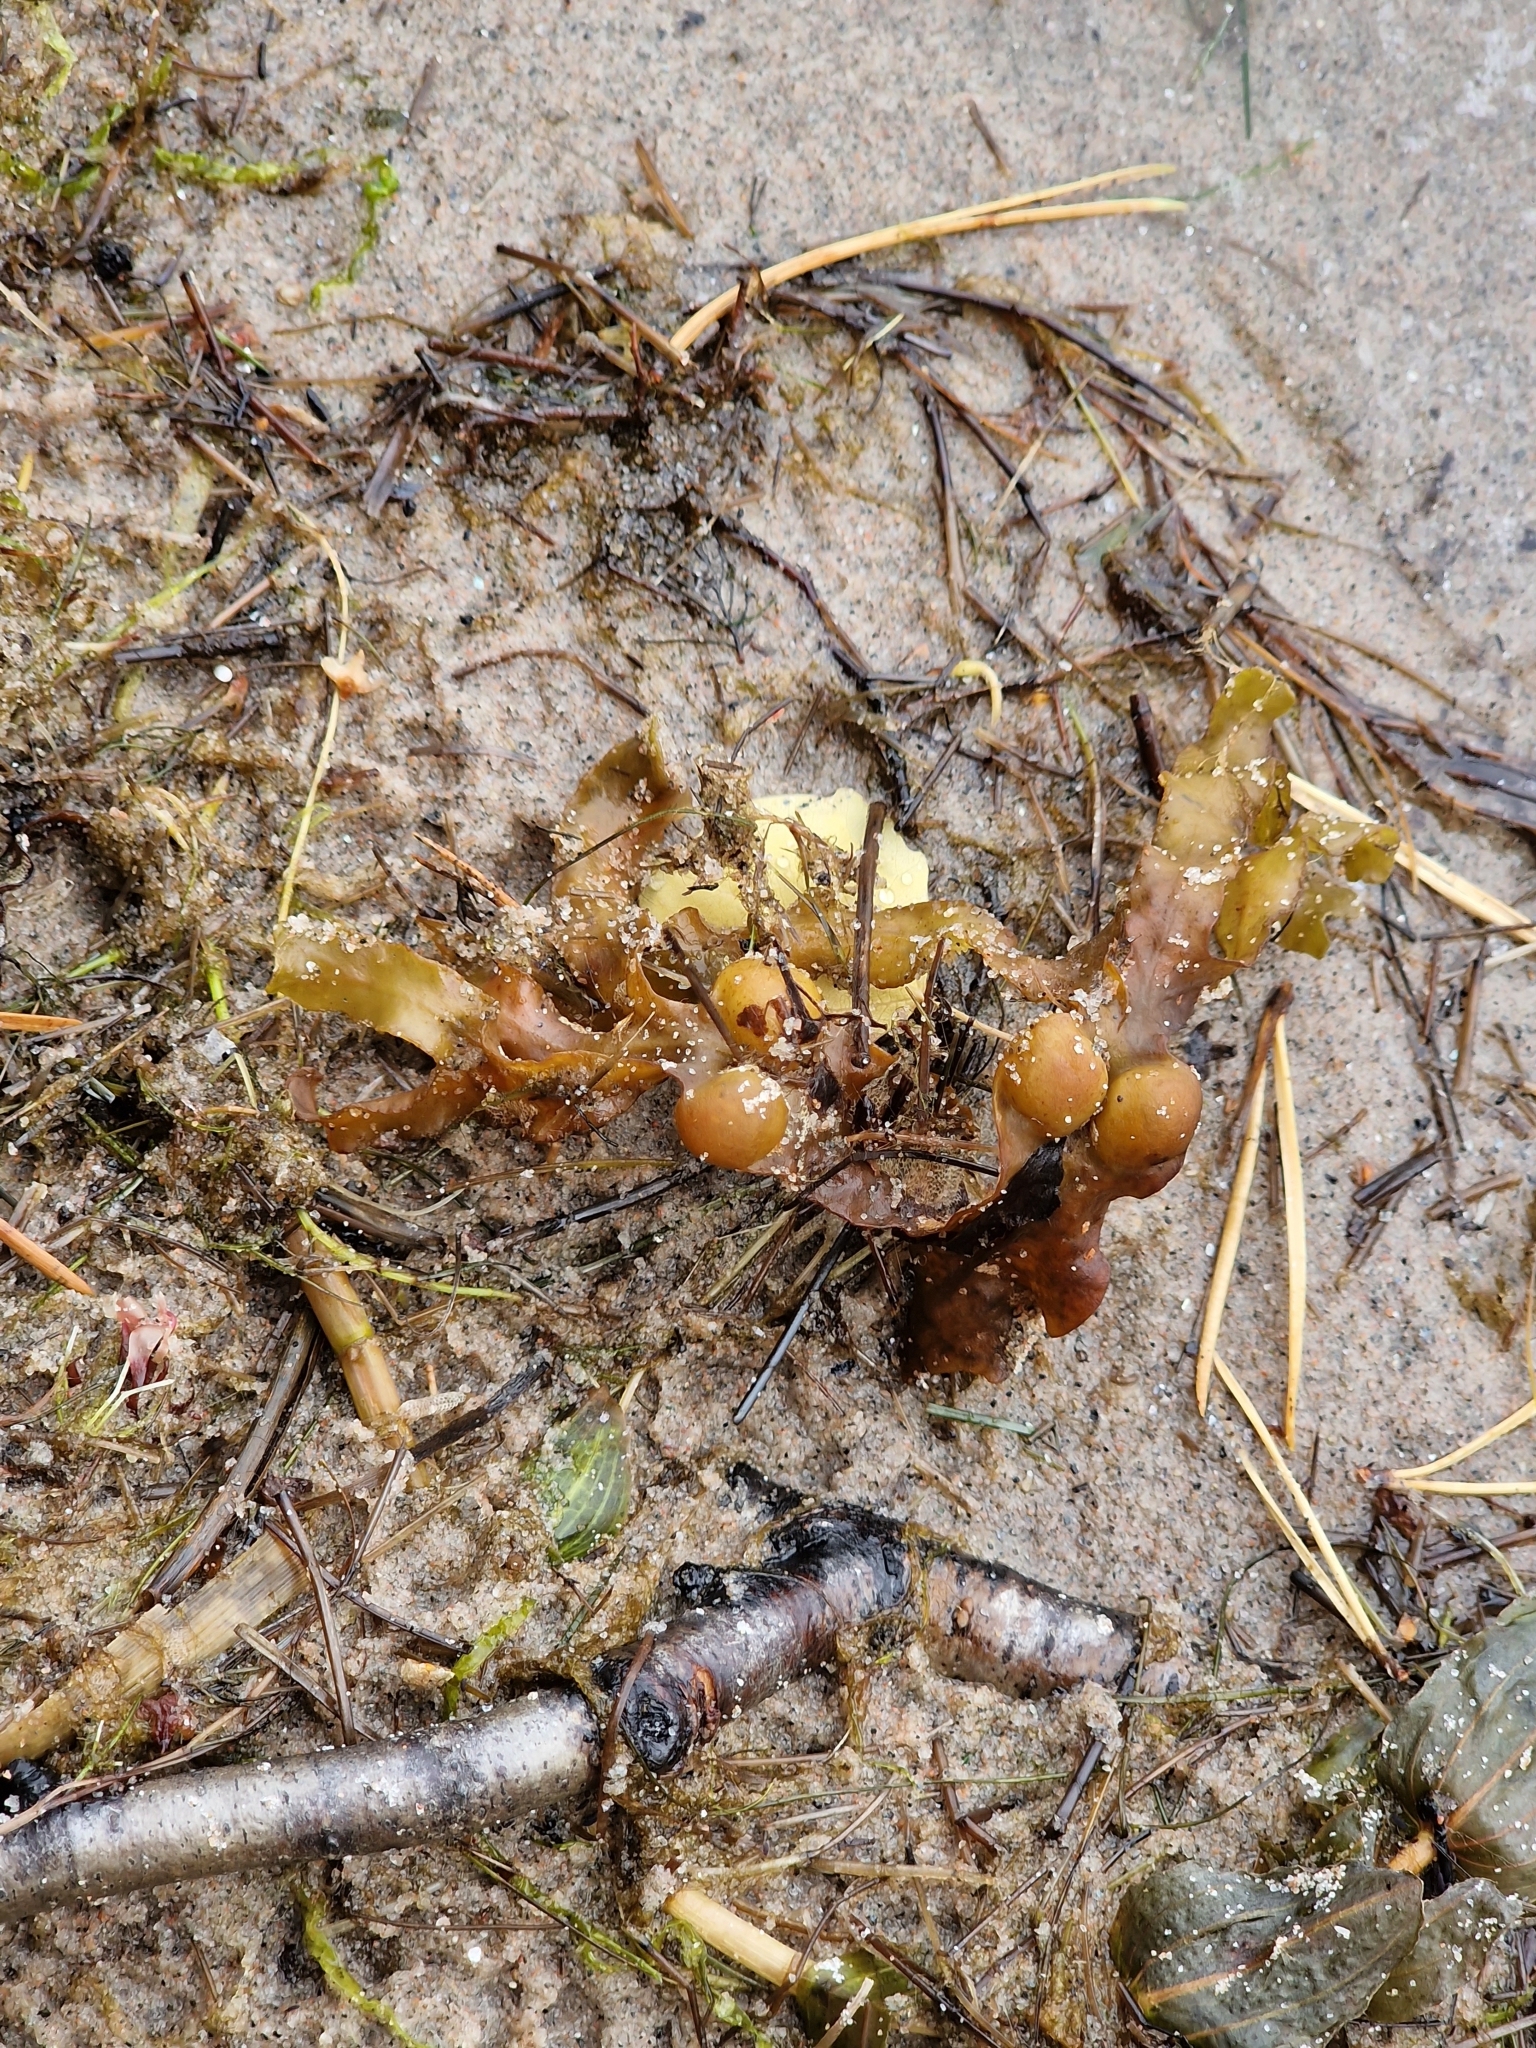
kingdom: Chromista
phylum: Ochrophyta
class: Phaeophyceae
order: Fucales
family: Fucaceae
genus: Fucus
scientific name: Fucus vesiculosus
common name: Bladder wrack
